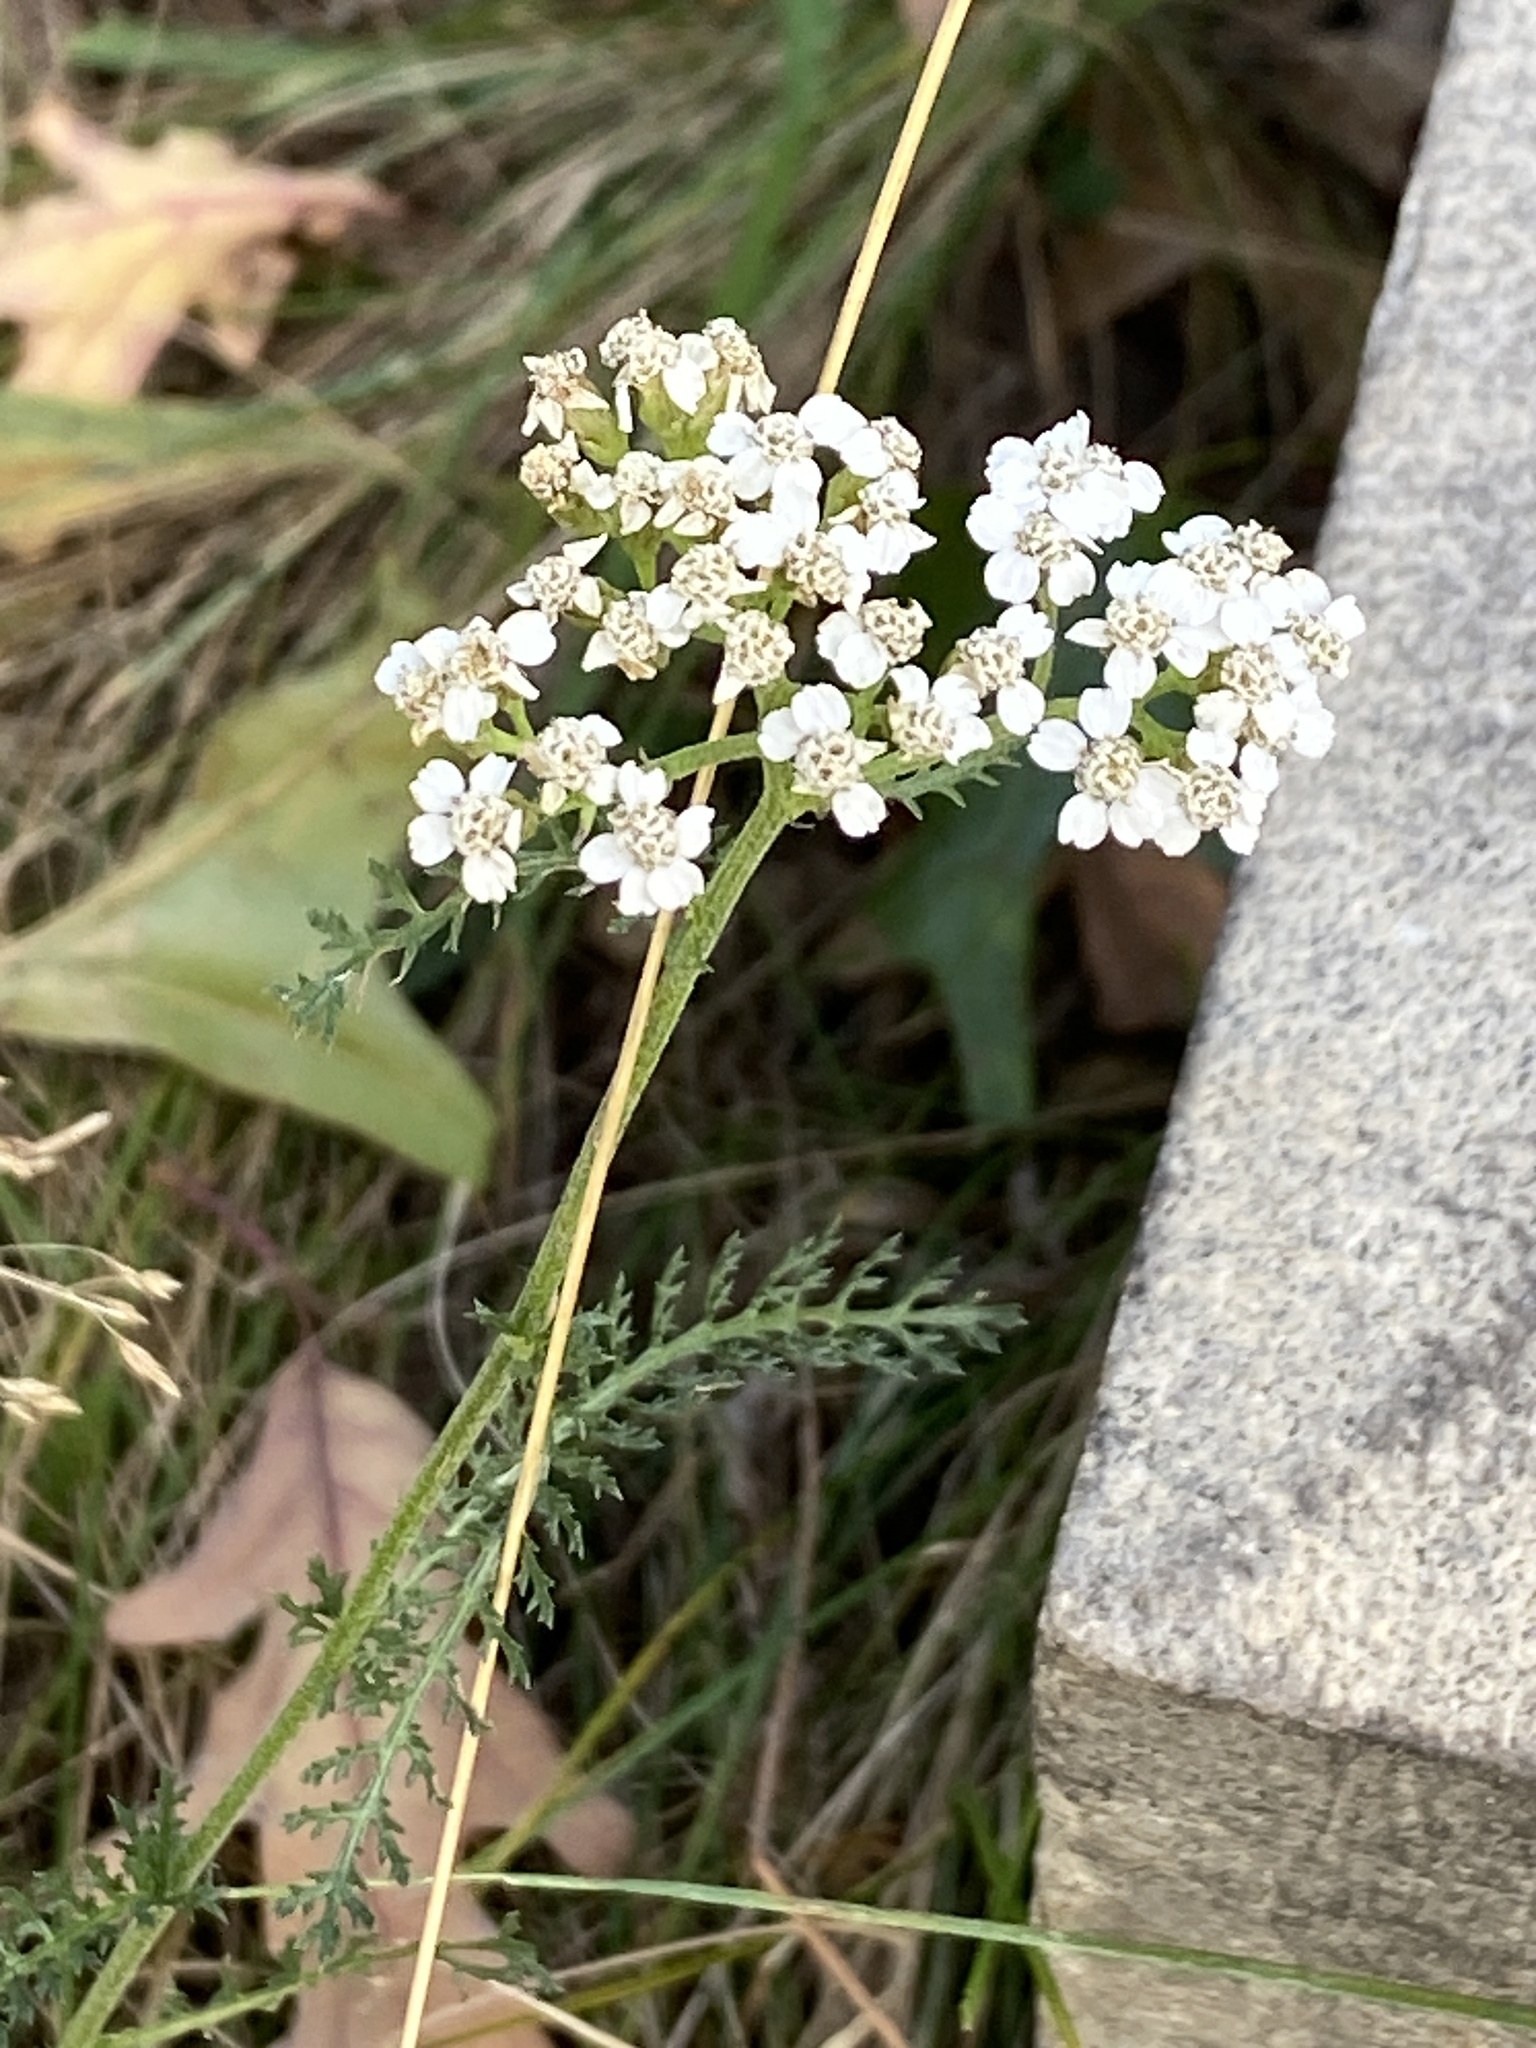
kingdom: Plantae
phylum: Tracheophyta
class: Magnoliopsida
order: Asterales
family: Asteraceae
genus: Achillea
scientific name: Achillea millefolium
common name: Yarrow
